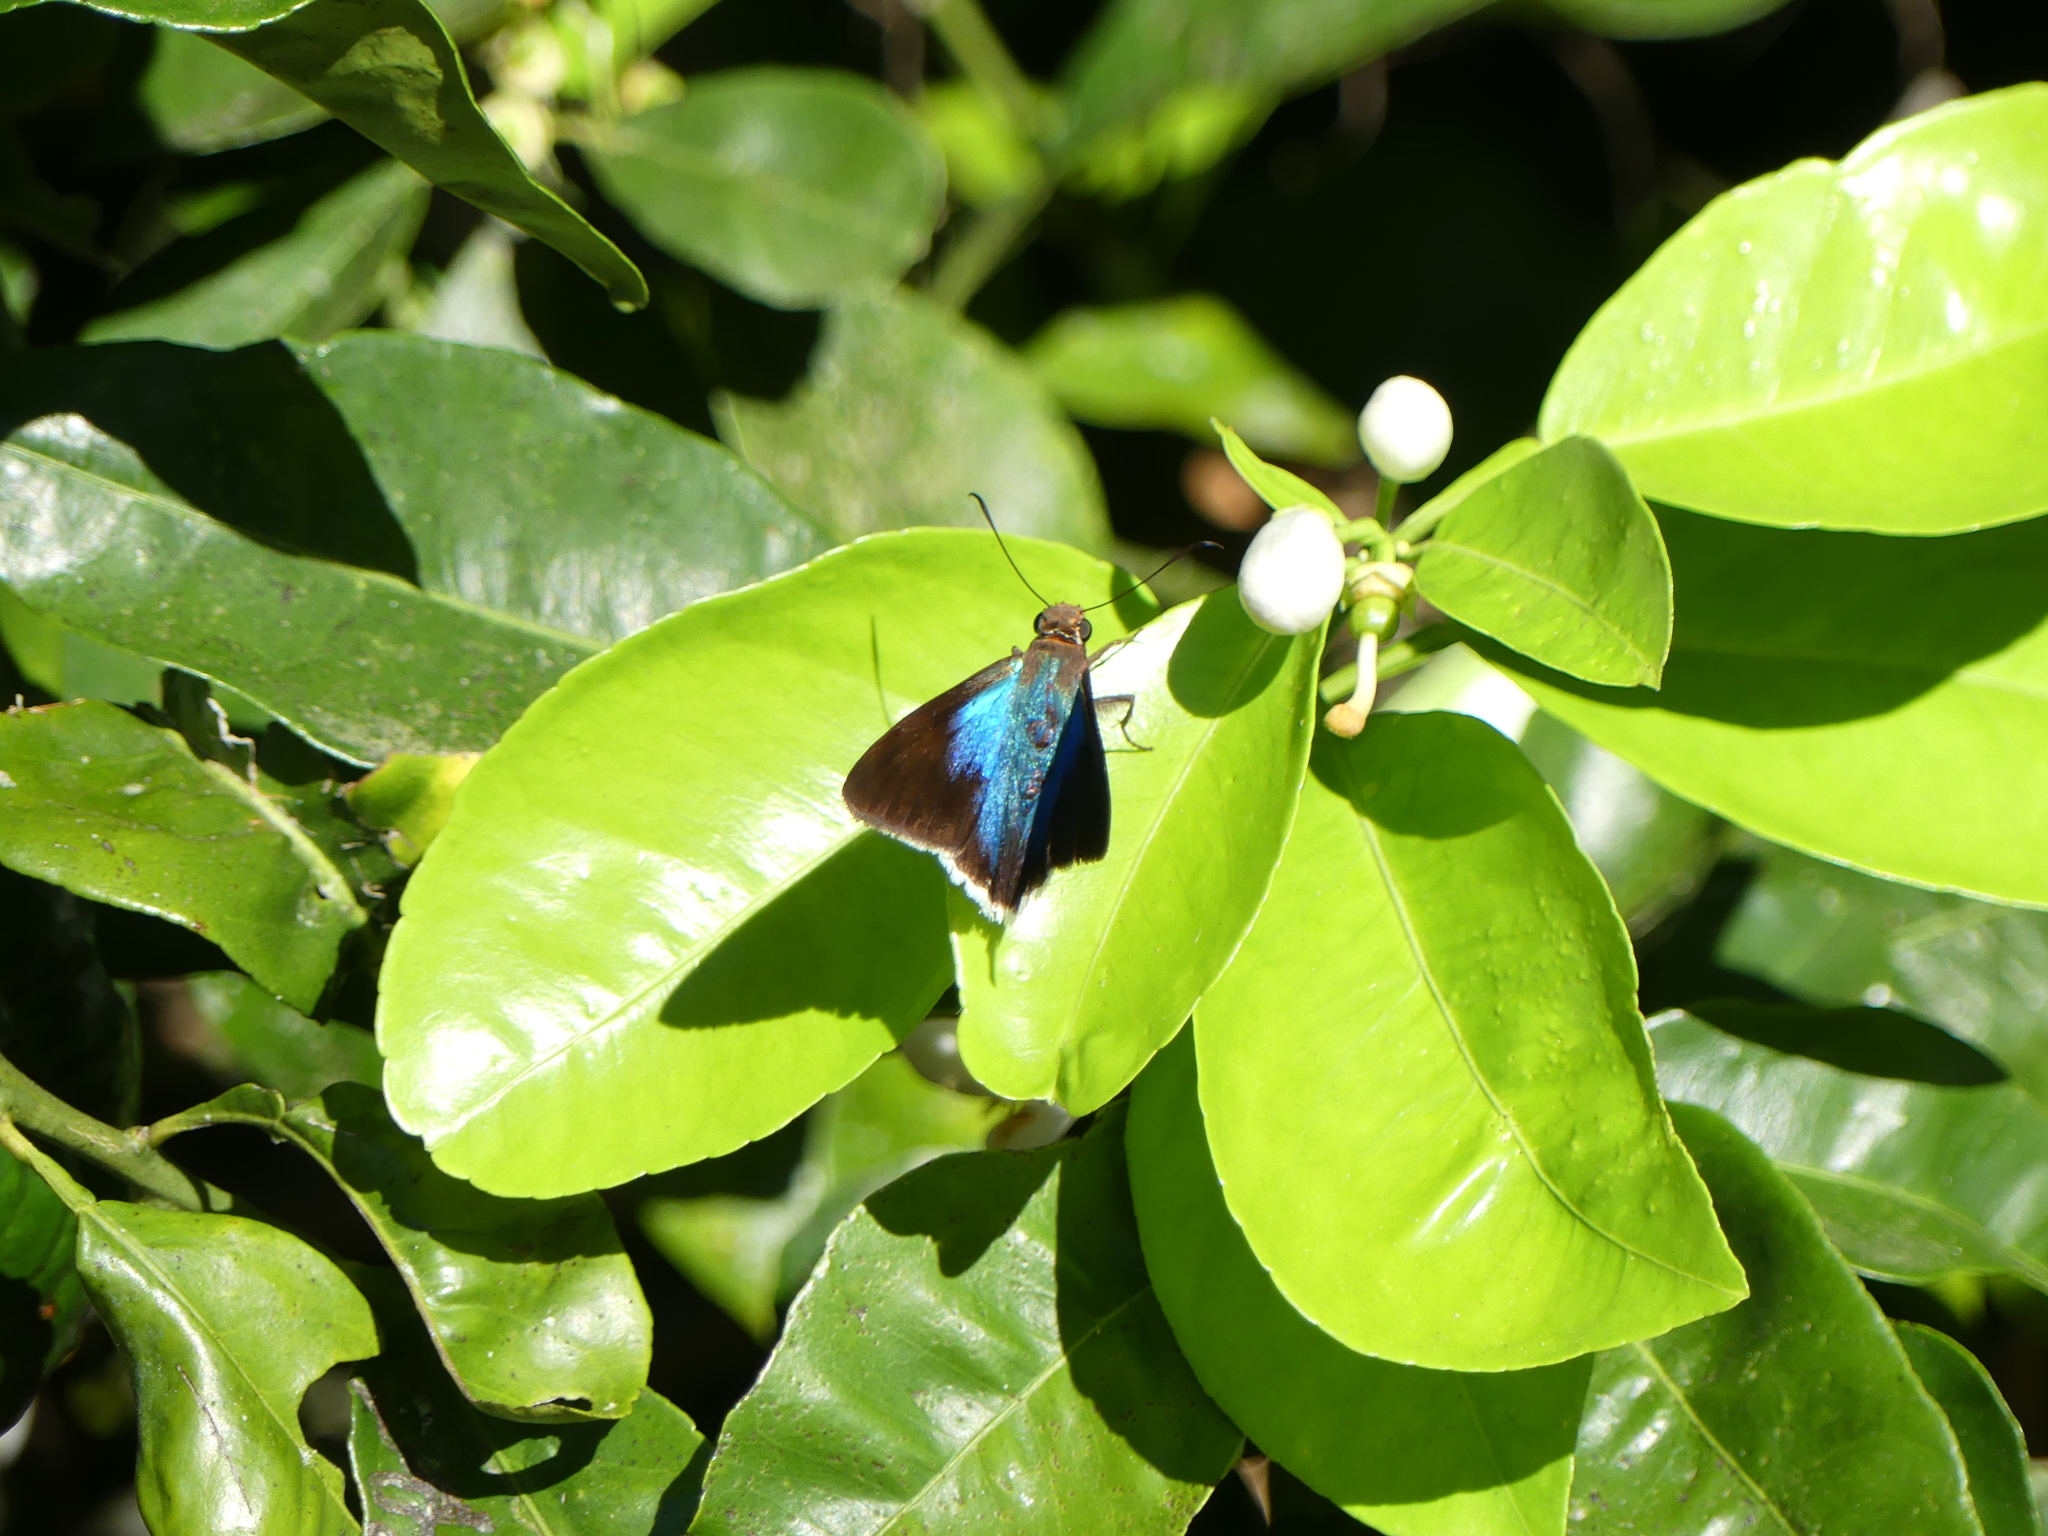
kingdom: Animalia
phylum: Arthropoda
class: Insecta
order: Lepidoptera
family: Hesperiidae
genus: Astraptes
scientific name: Astraptes
